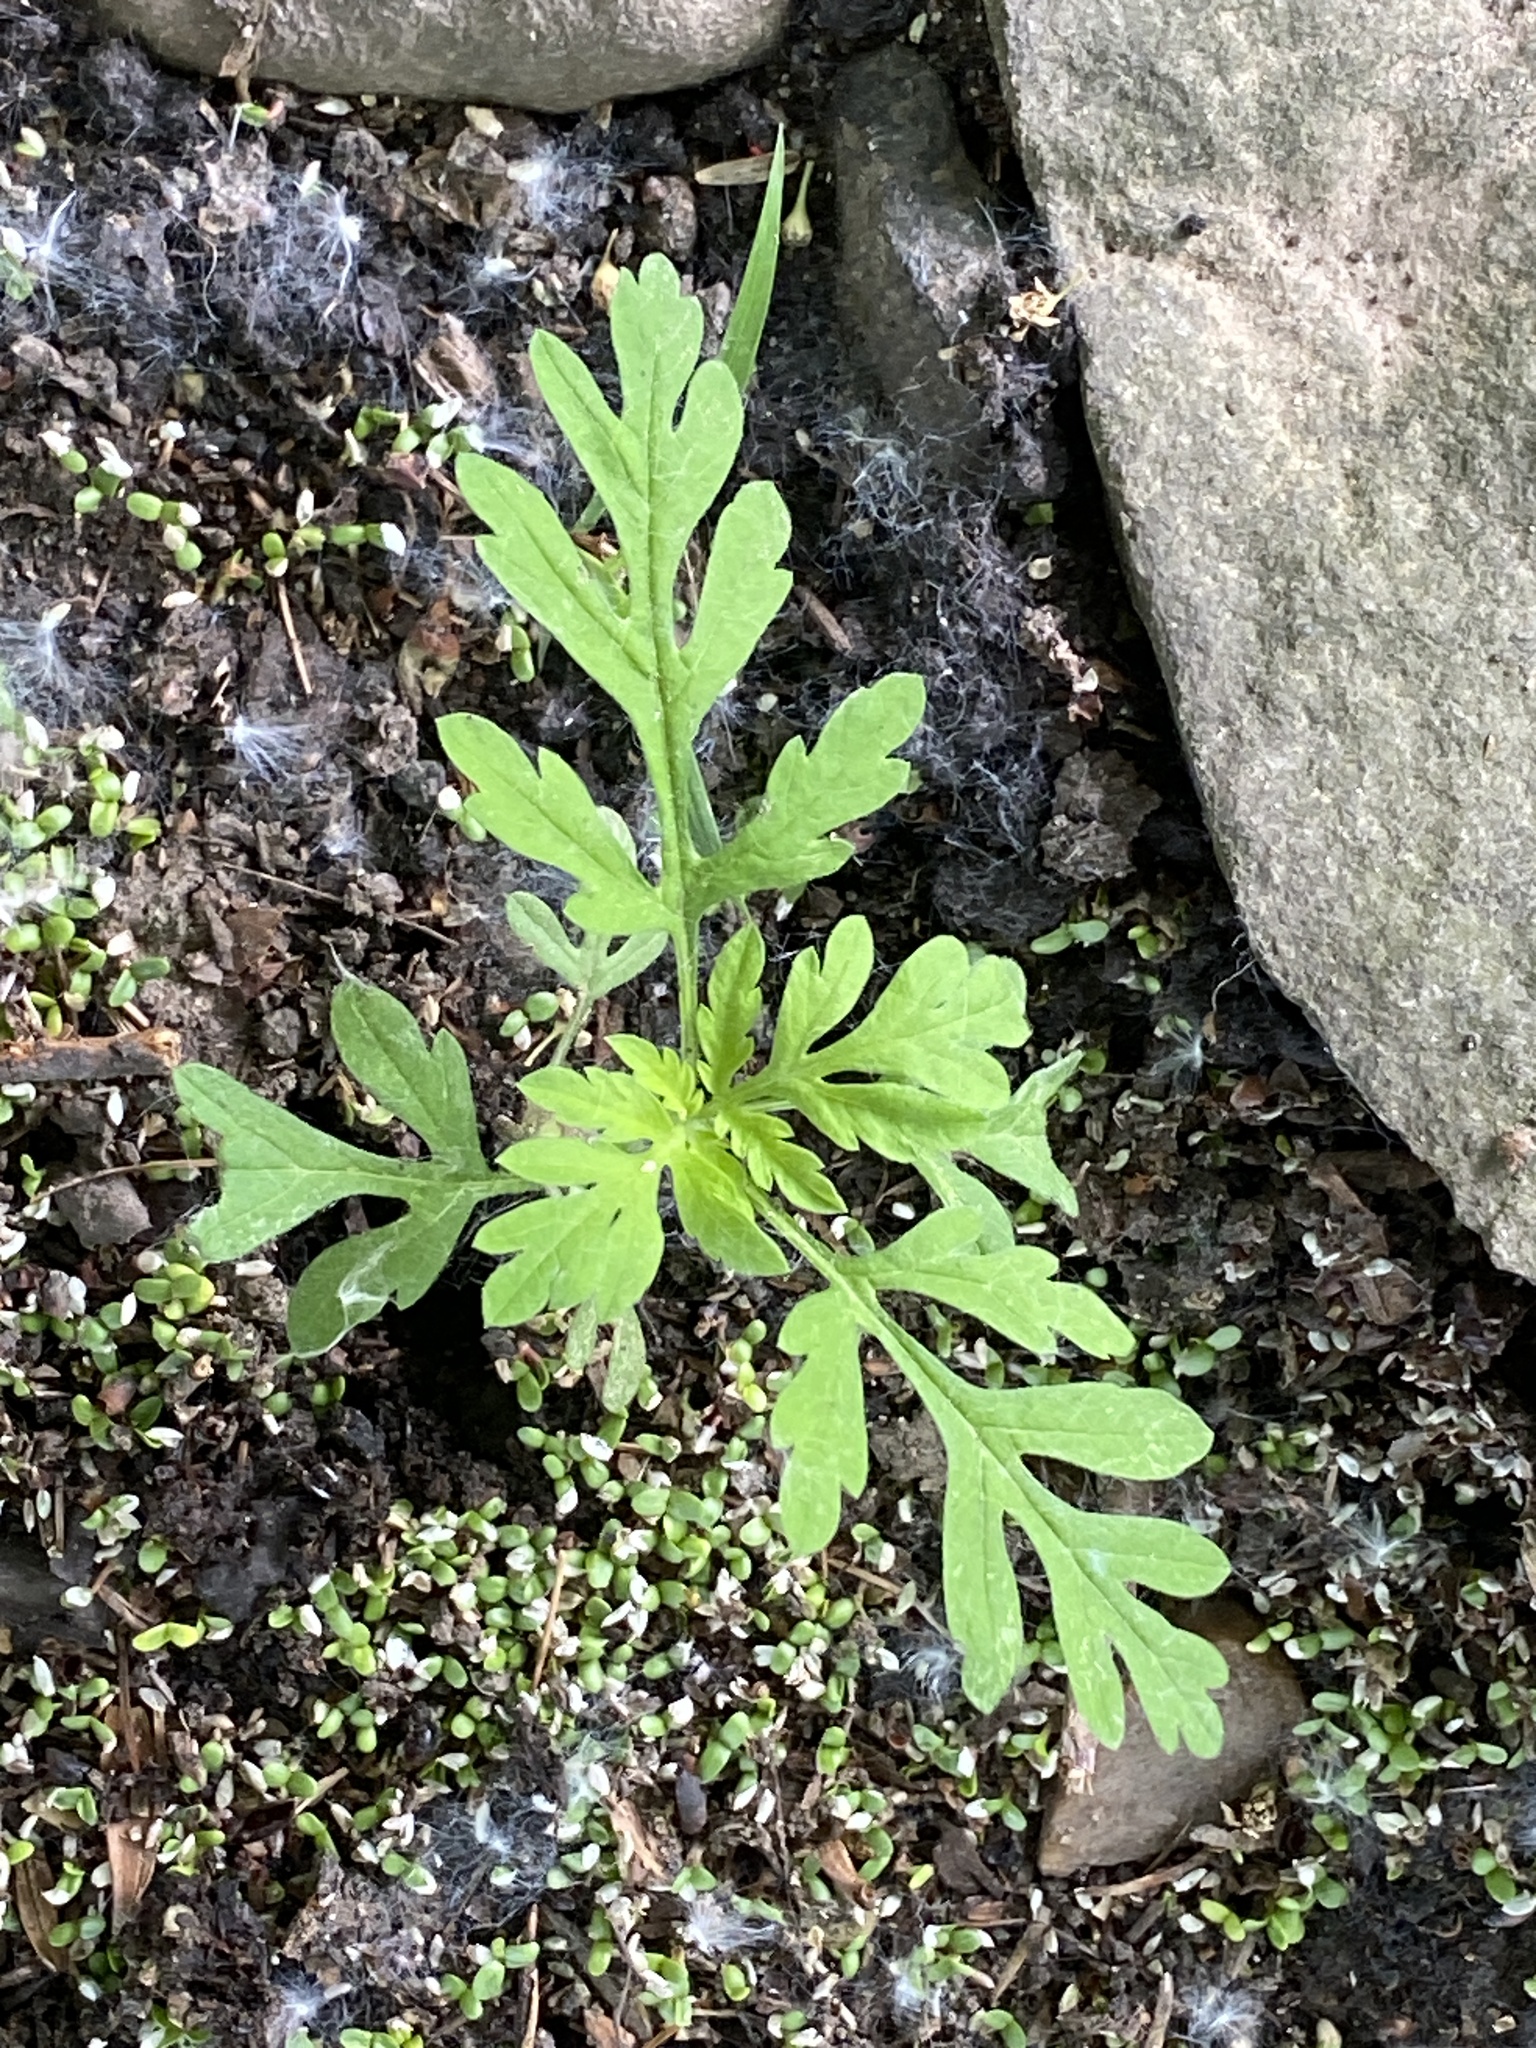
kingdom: Plantae
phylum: Tracheophyta
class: Magnoliopsida
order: Asterales
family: Asteraceae
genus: Ambrosia
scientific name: Ambrosia artemisiifolia
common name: Annual ragweed
